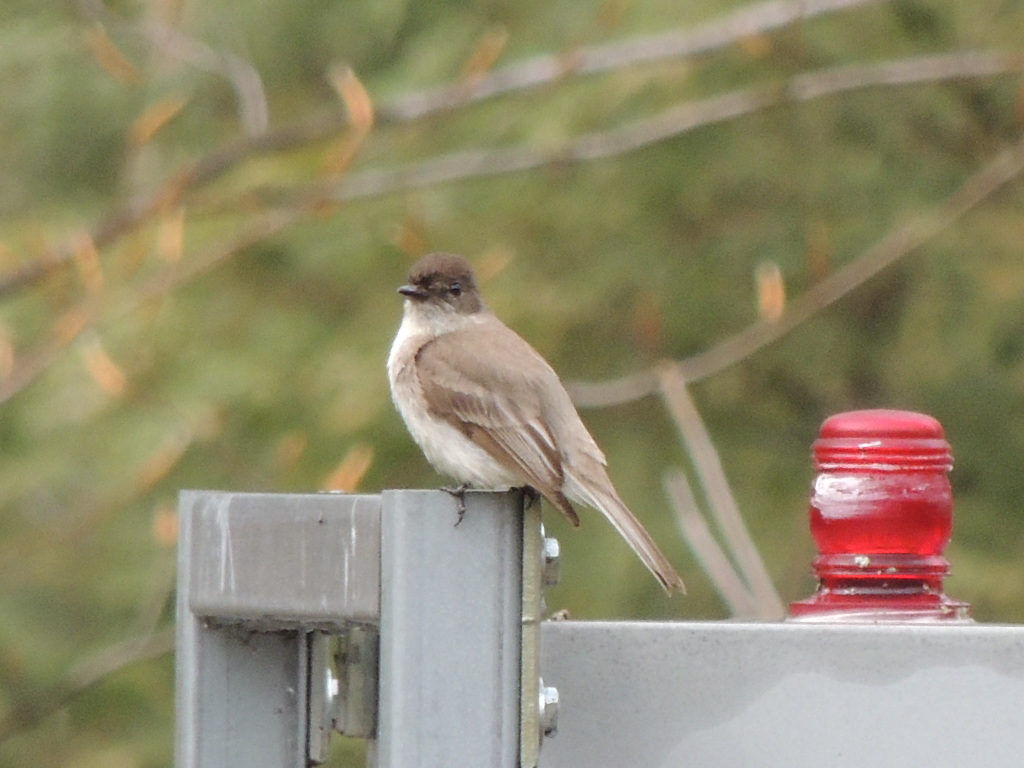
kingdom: Animalia
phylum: Chordata
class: Aves
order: Passeriformes
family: Tyrannidae
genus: Sayornis
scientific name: Sayornis phoebe
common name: Eastern phoebe
